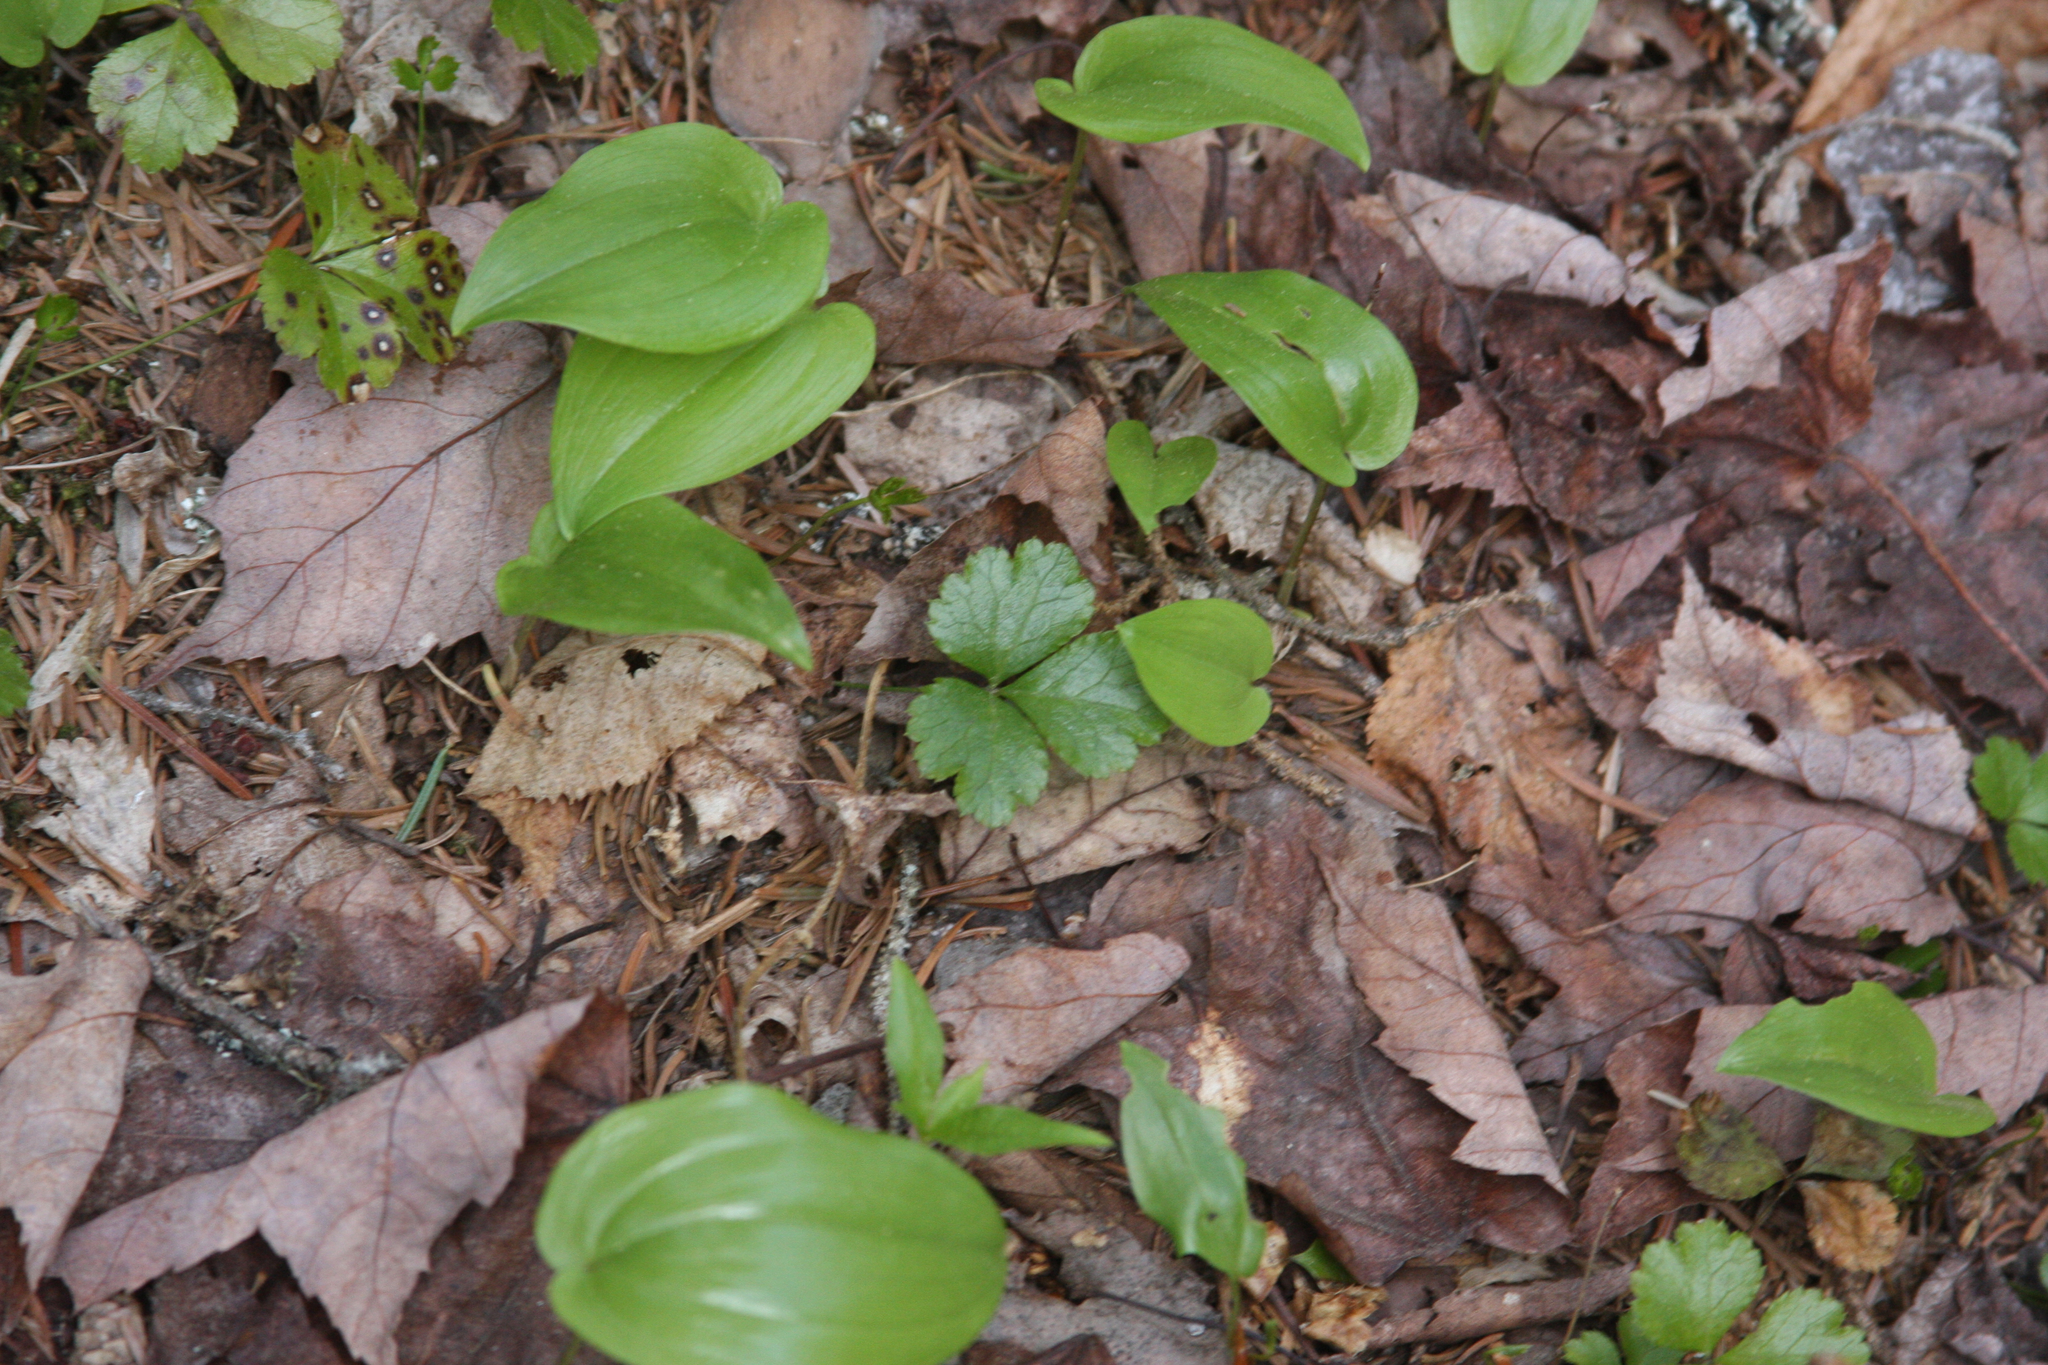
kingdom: Plantae
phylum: Tracheophyta
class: Magnoliopsida
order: Ranunculales
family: Ranunculaceae
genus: Coptis
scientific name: Coptis trifolia
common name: Canker-root
